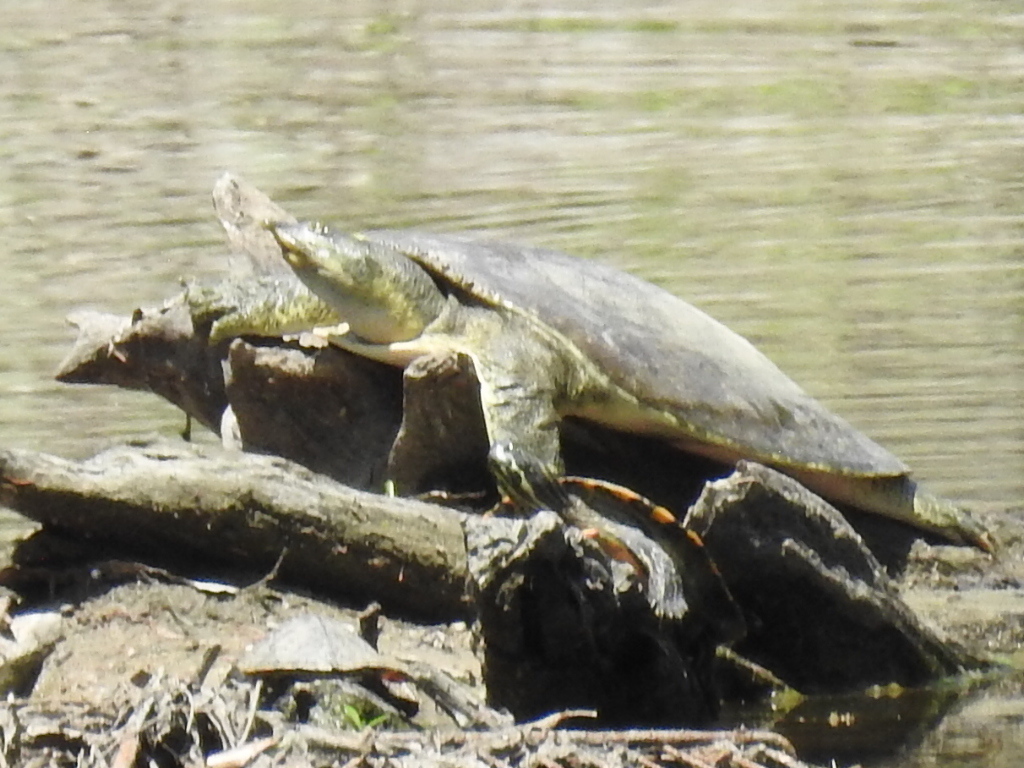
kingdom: Animalia
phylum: Chordata
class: Testudines
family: Trionychidae
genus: Apalone
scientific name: Apalone spinifera
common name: Spiny softshell turtle
